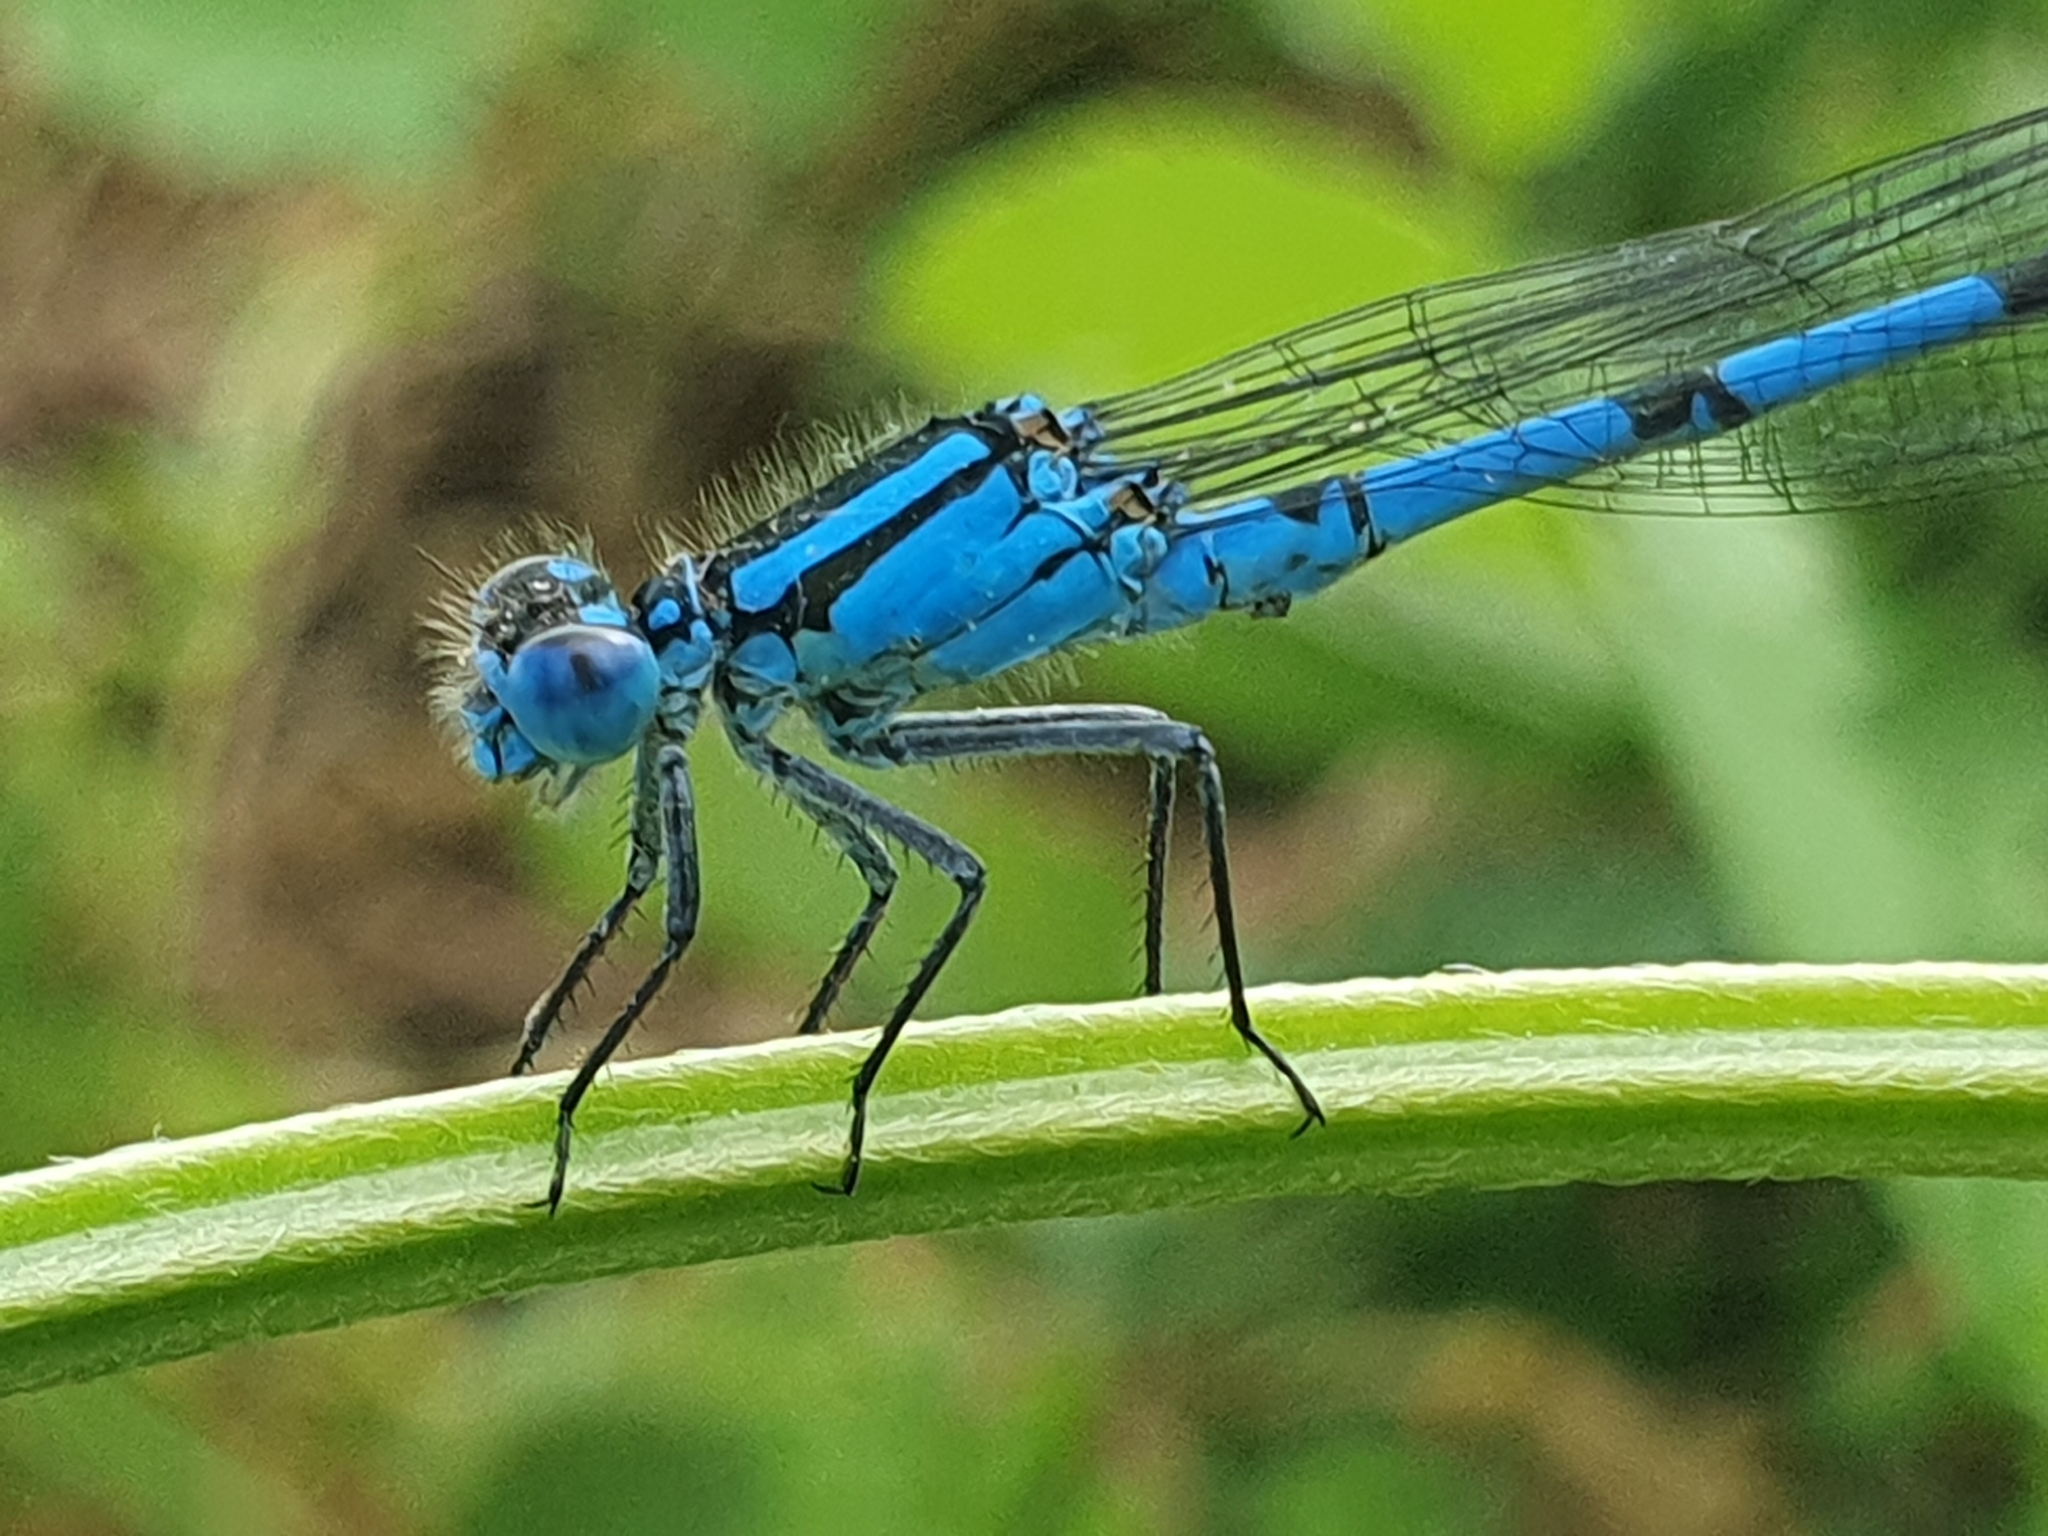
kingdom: Animalia
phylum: Arthropoda
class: Insecta
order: Odonata
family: Coenagrionidae
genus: Enallagma
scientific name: Enallagma cyathigerum
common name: Common blue damselfly
